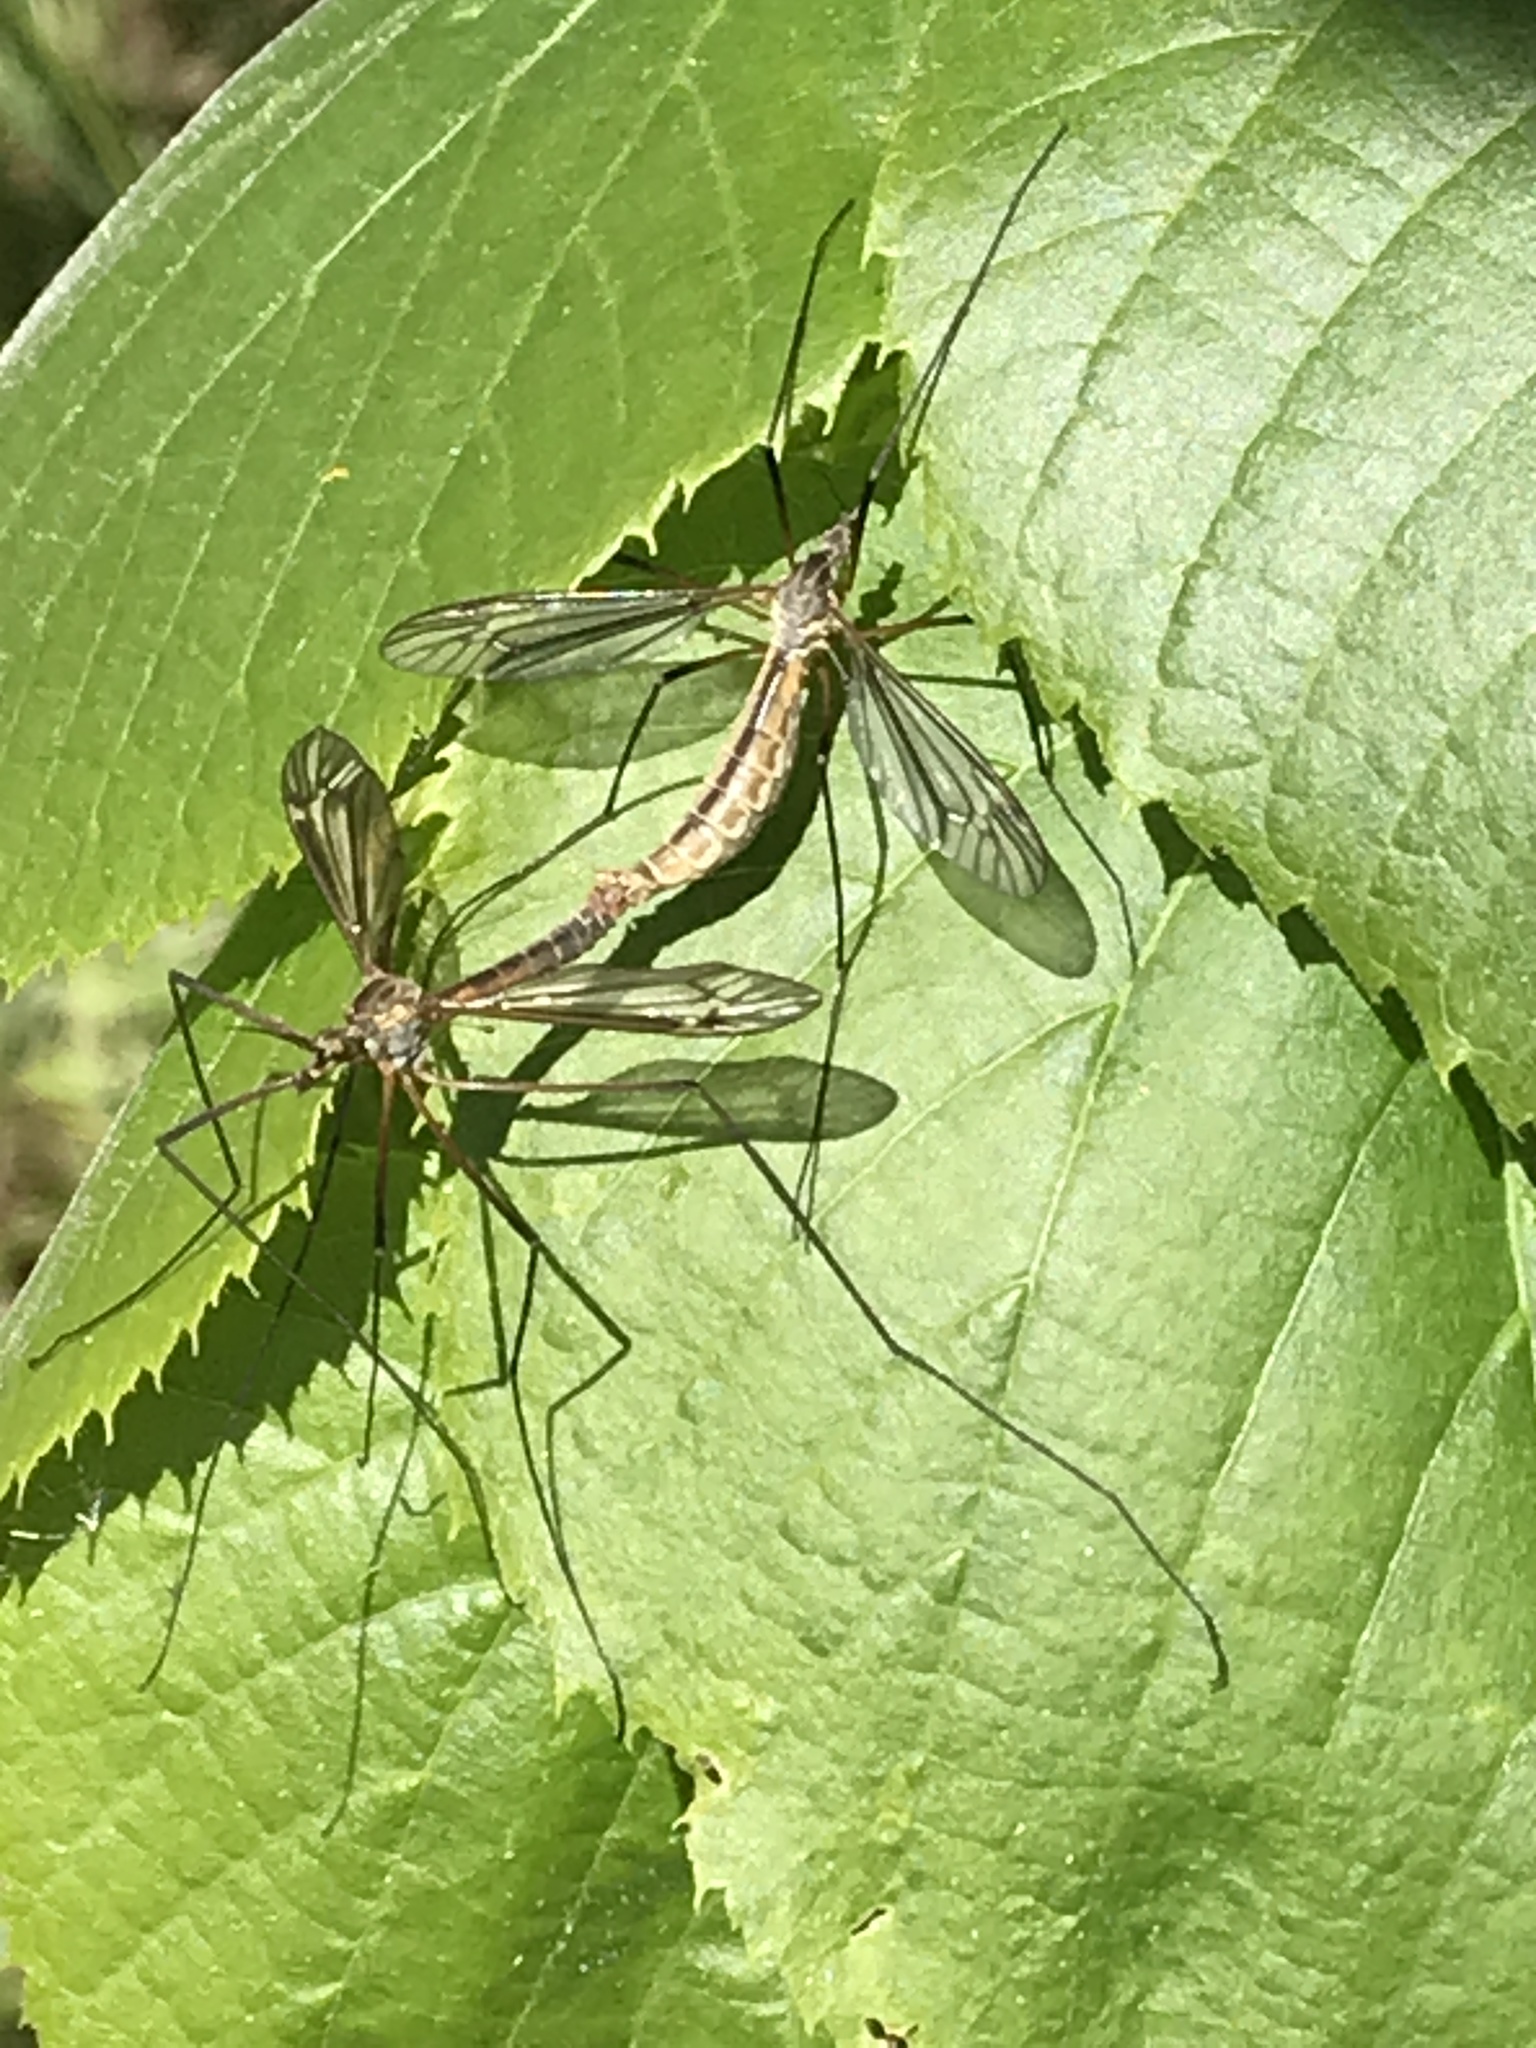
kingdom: Animalia
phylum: Arthropoda
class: Insecta
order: Diptera
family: Tipulidae
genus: Tipula
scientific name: Tipula paludosa
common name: European cranefly
